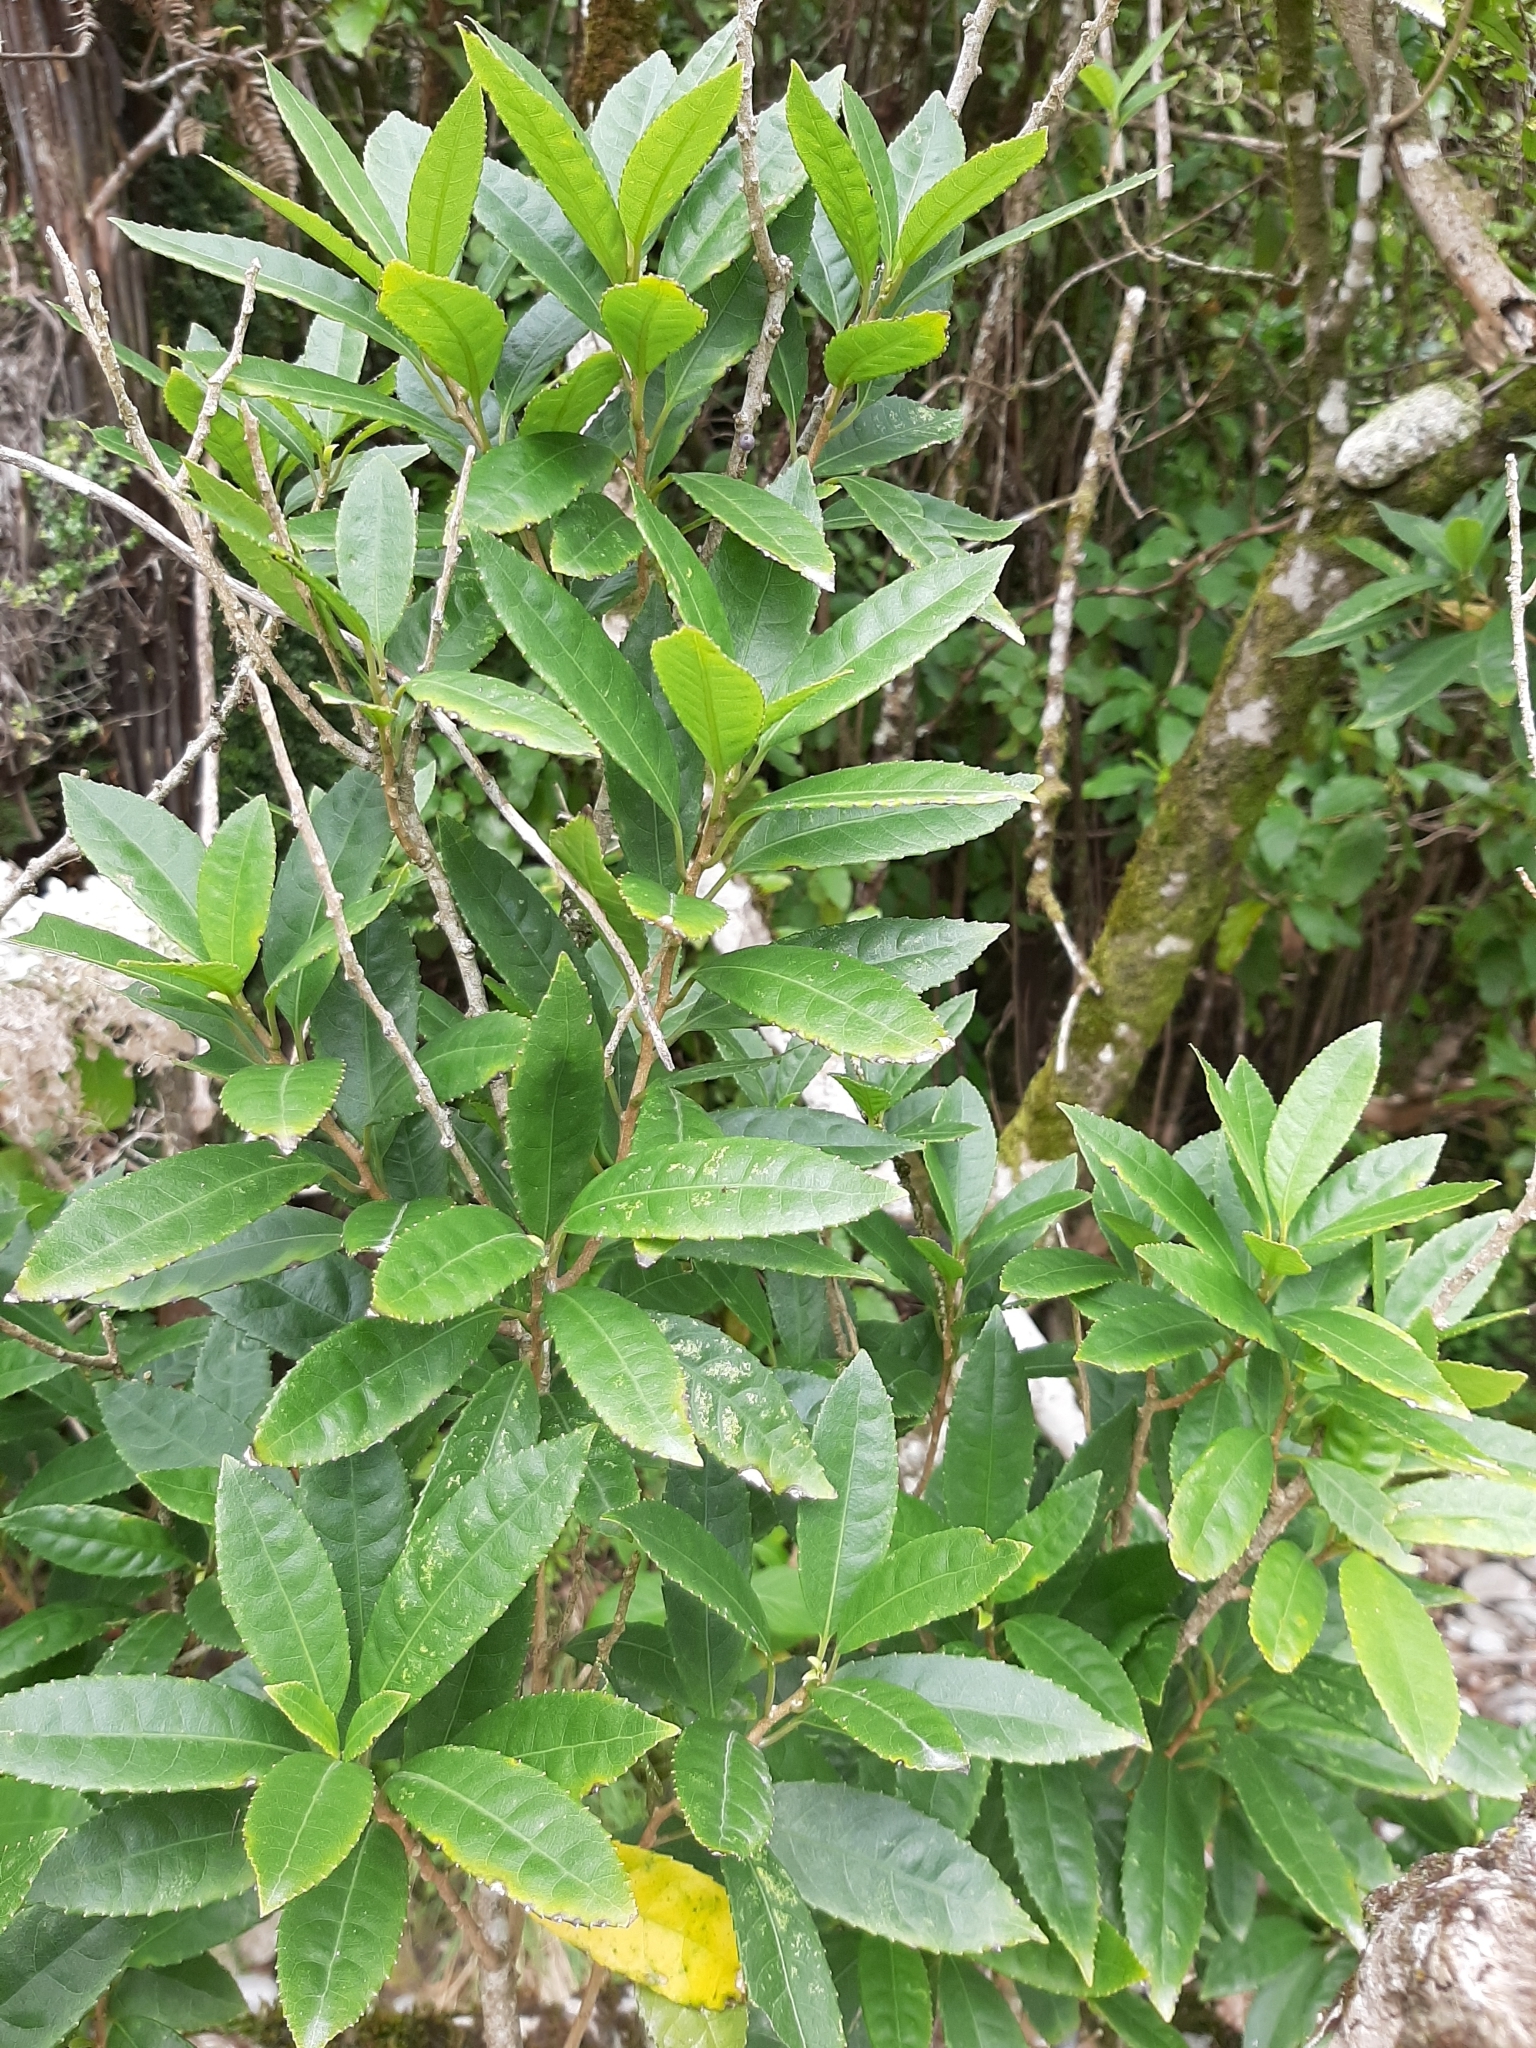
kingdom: Plantae
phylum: Tracheophyta
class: Magnoliopsida
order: Malpighiales
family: Violaceae
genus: Melicytus
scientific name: Melicytus ramiflorus
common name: Mahoe
